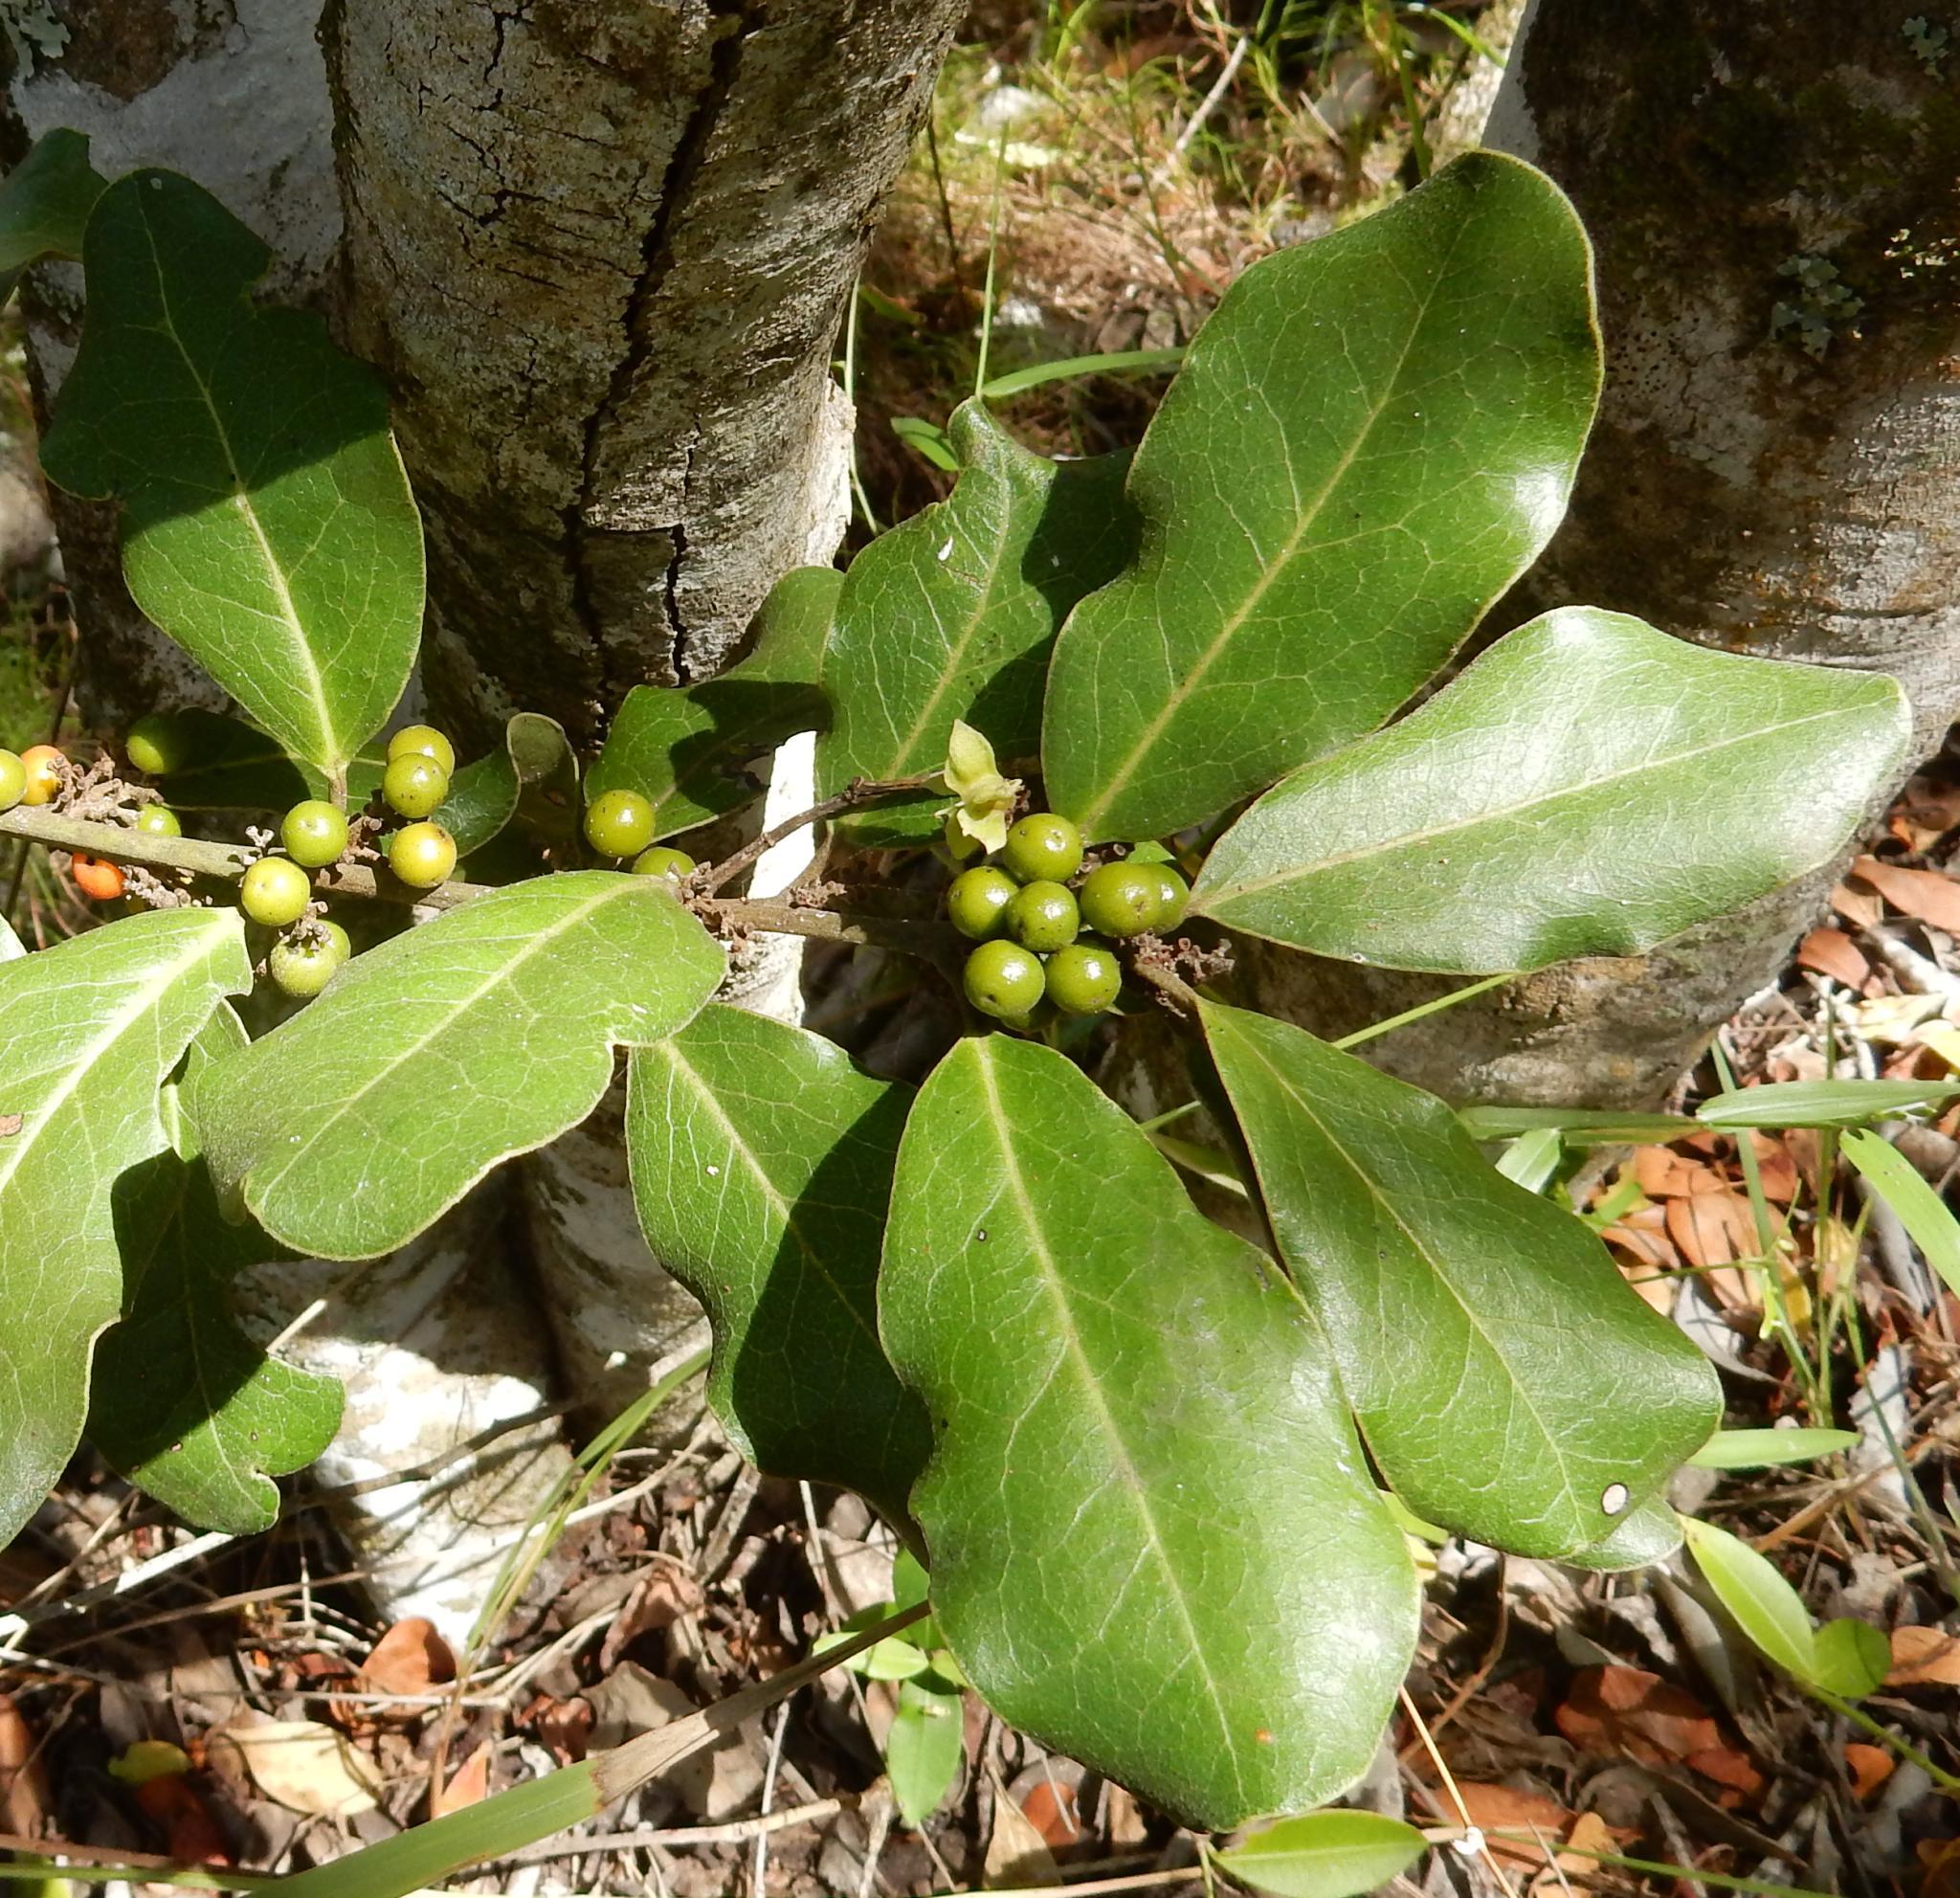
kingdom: Plantae
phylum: Tracheophyta
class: Magnoliopsida
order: Ericales
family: Ebenaceae
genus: Euclea
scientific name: Euclea natalensis
